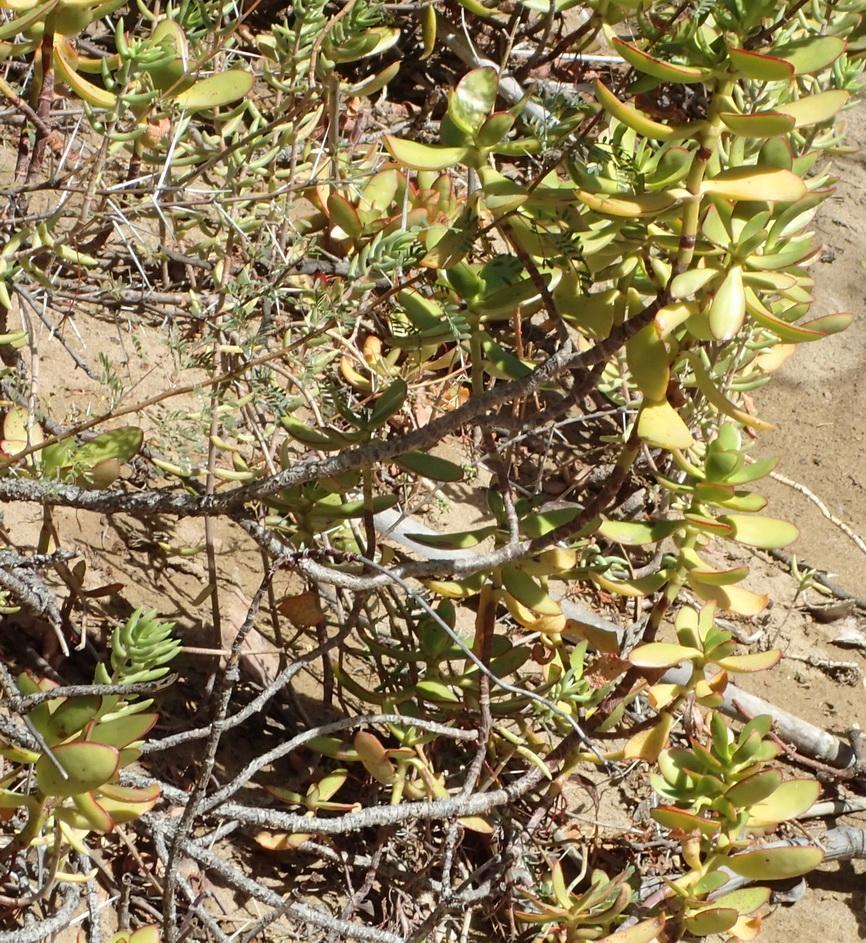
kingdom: Plantae
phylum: Tracheophyta
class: Magnoliopsida
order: Saxifragales
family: Crassulaceae
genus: Crassula
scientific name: Crassula cultrata
